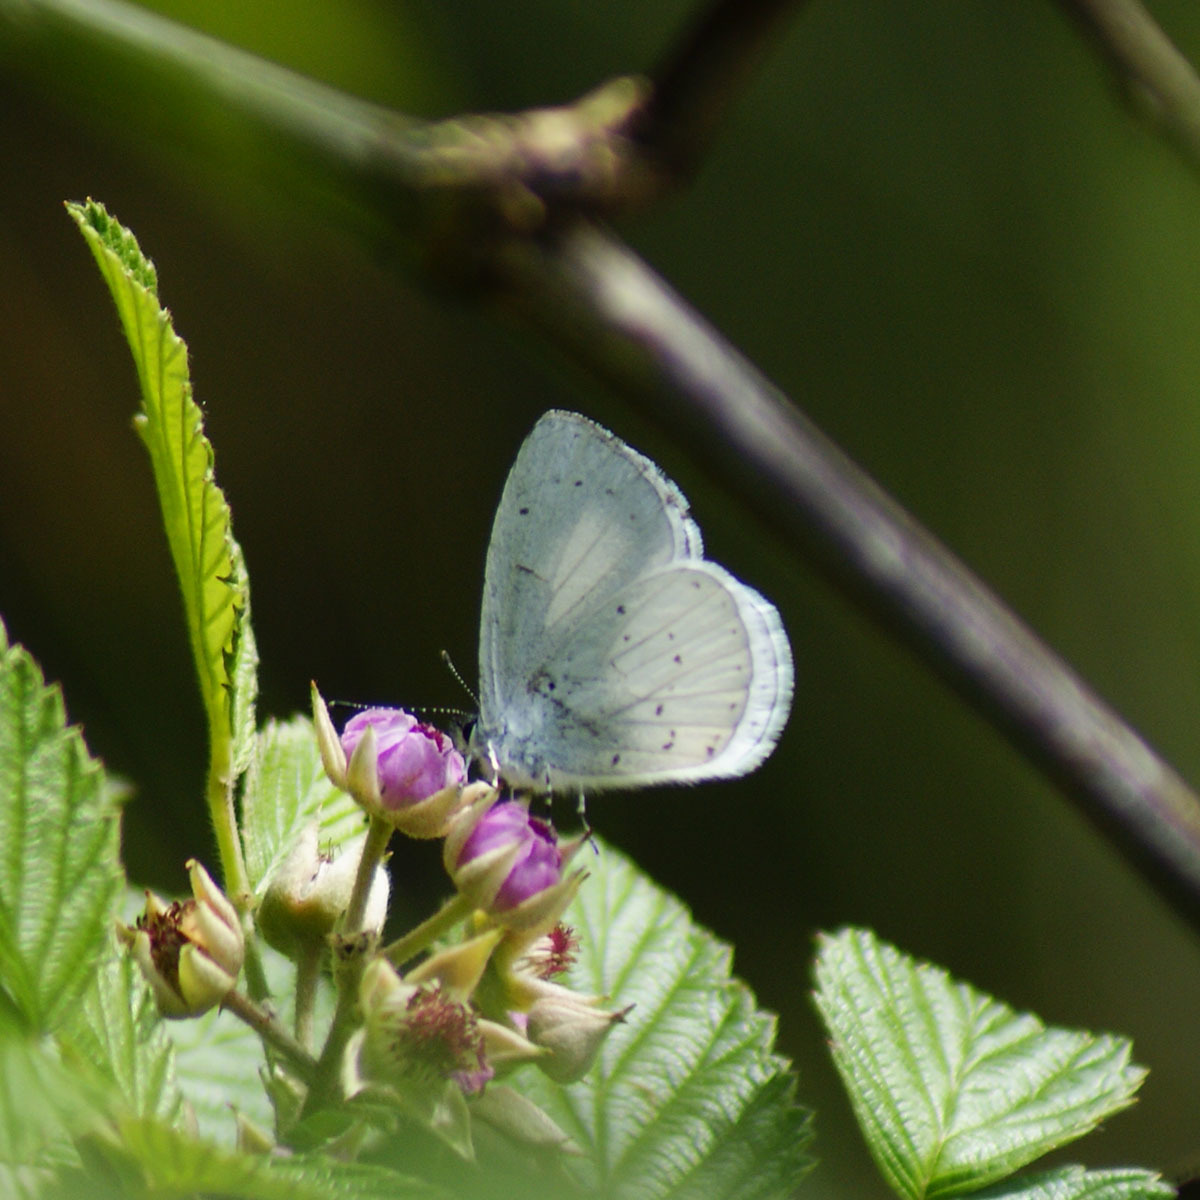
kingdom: Animalia
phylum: Arthropoda
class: Insecta
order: Lepidoptera
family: Lycaenidae
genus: Udara
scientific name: Udara akasa
